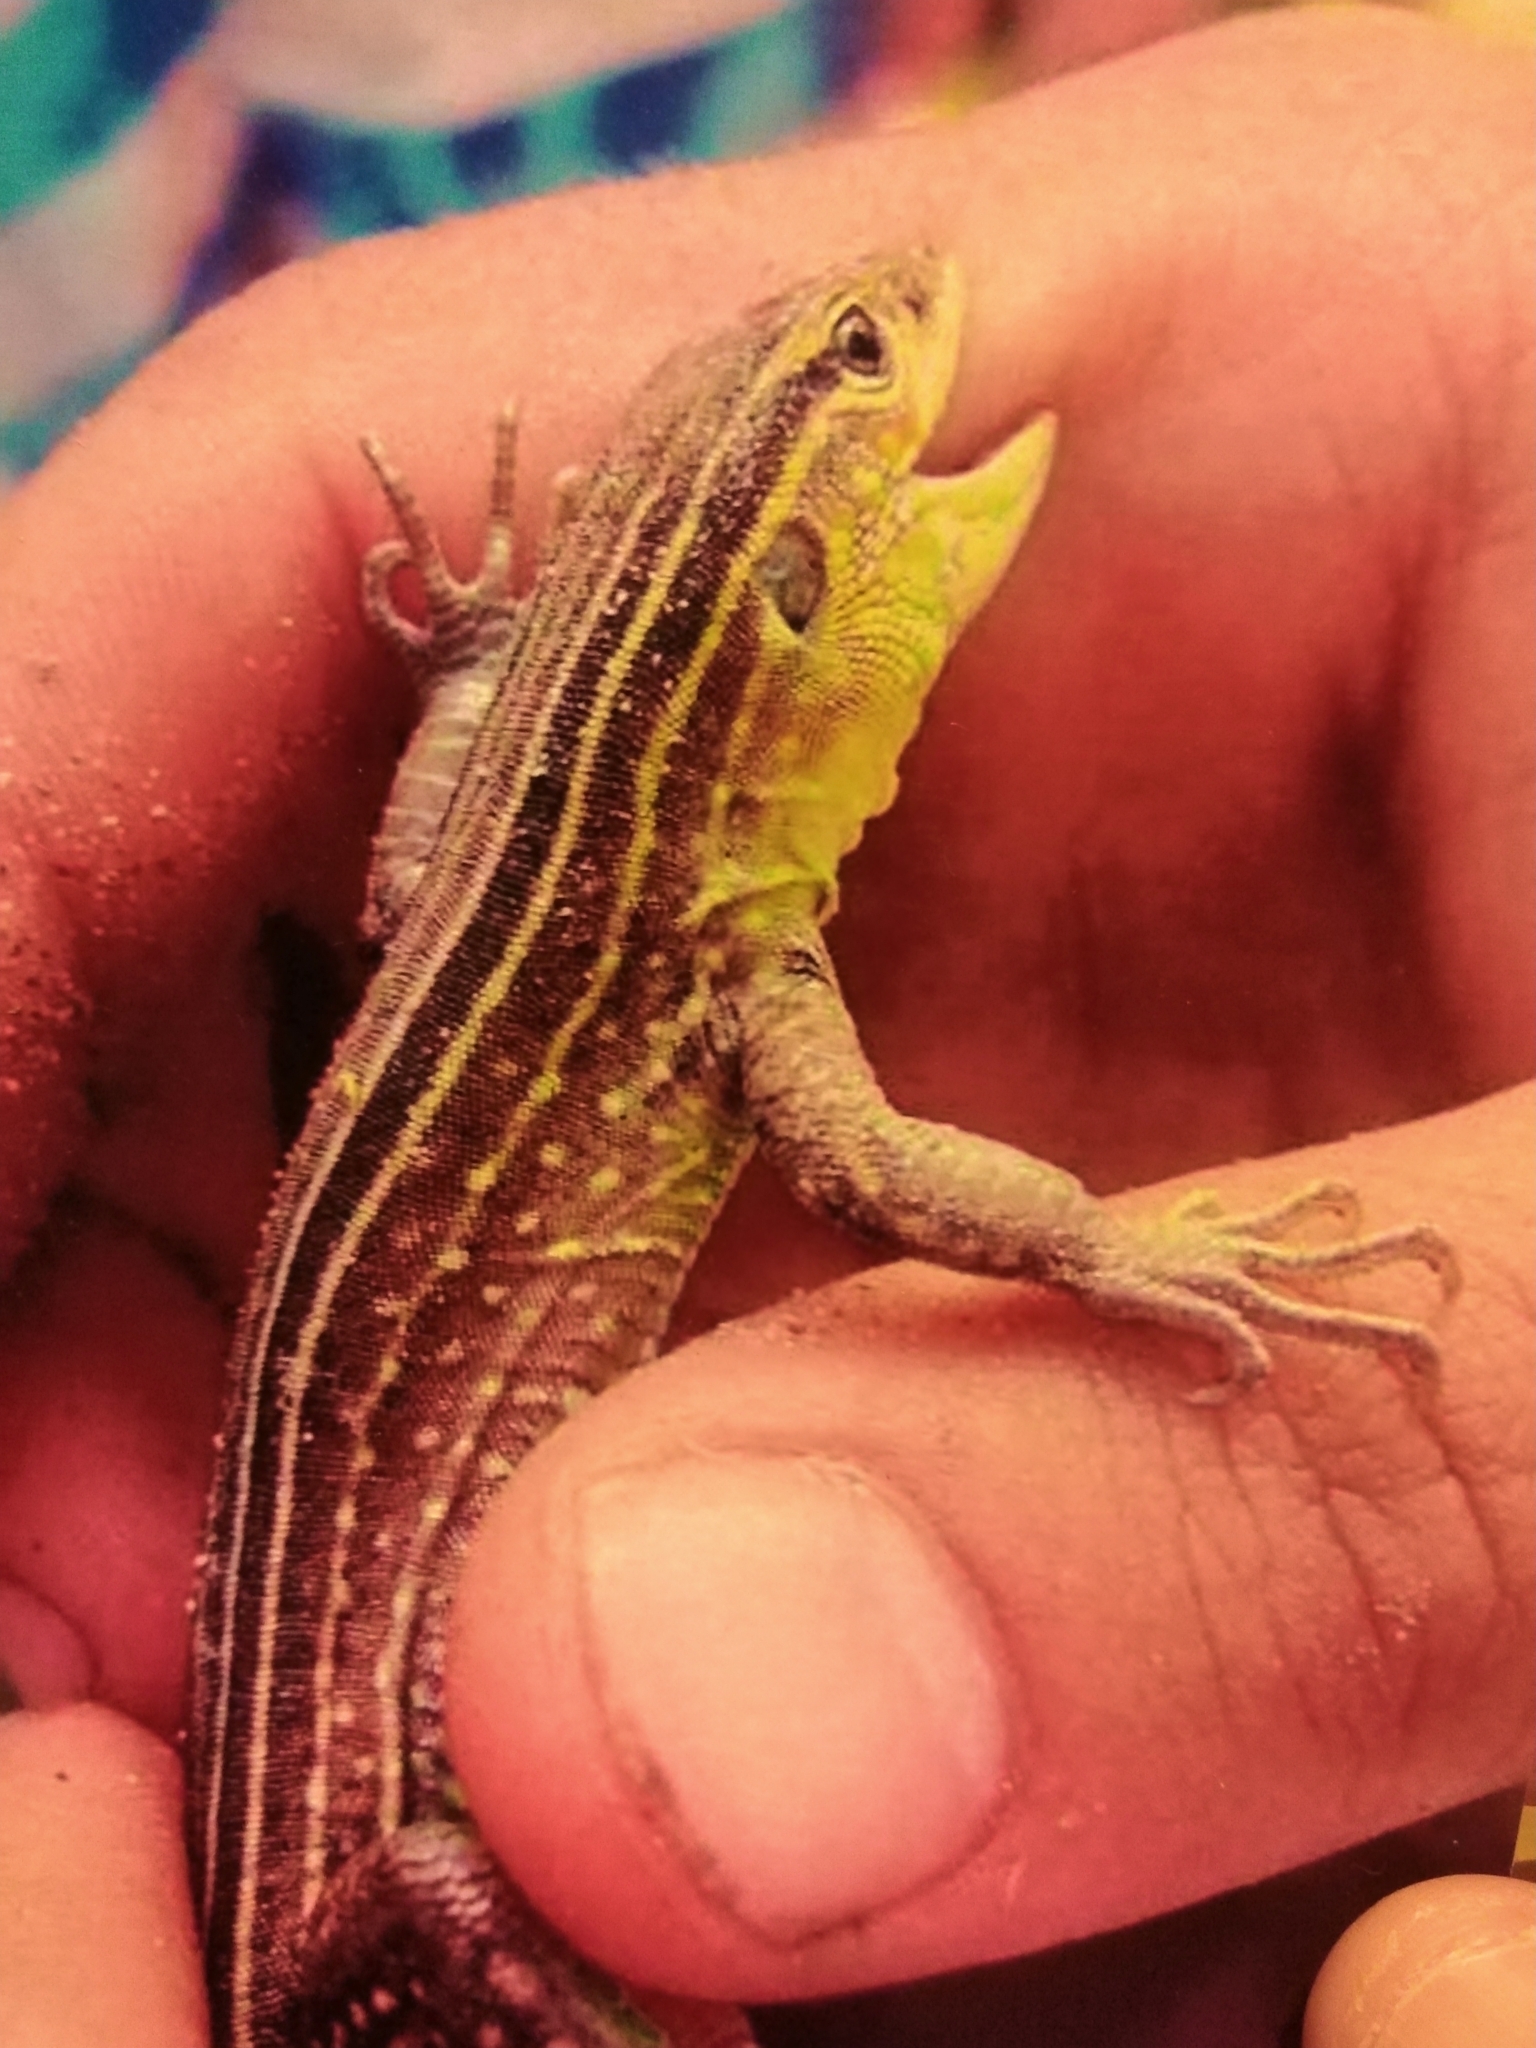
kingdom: Animalia
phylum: Chordata
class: Squamata
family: Teiidae
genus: Cnemidophorus
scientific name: Cnemidophorus gaigei
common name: Gaige’s rainbow lizard
